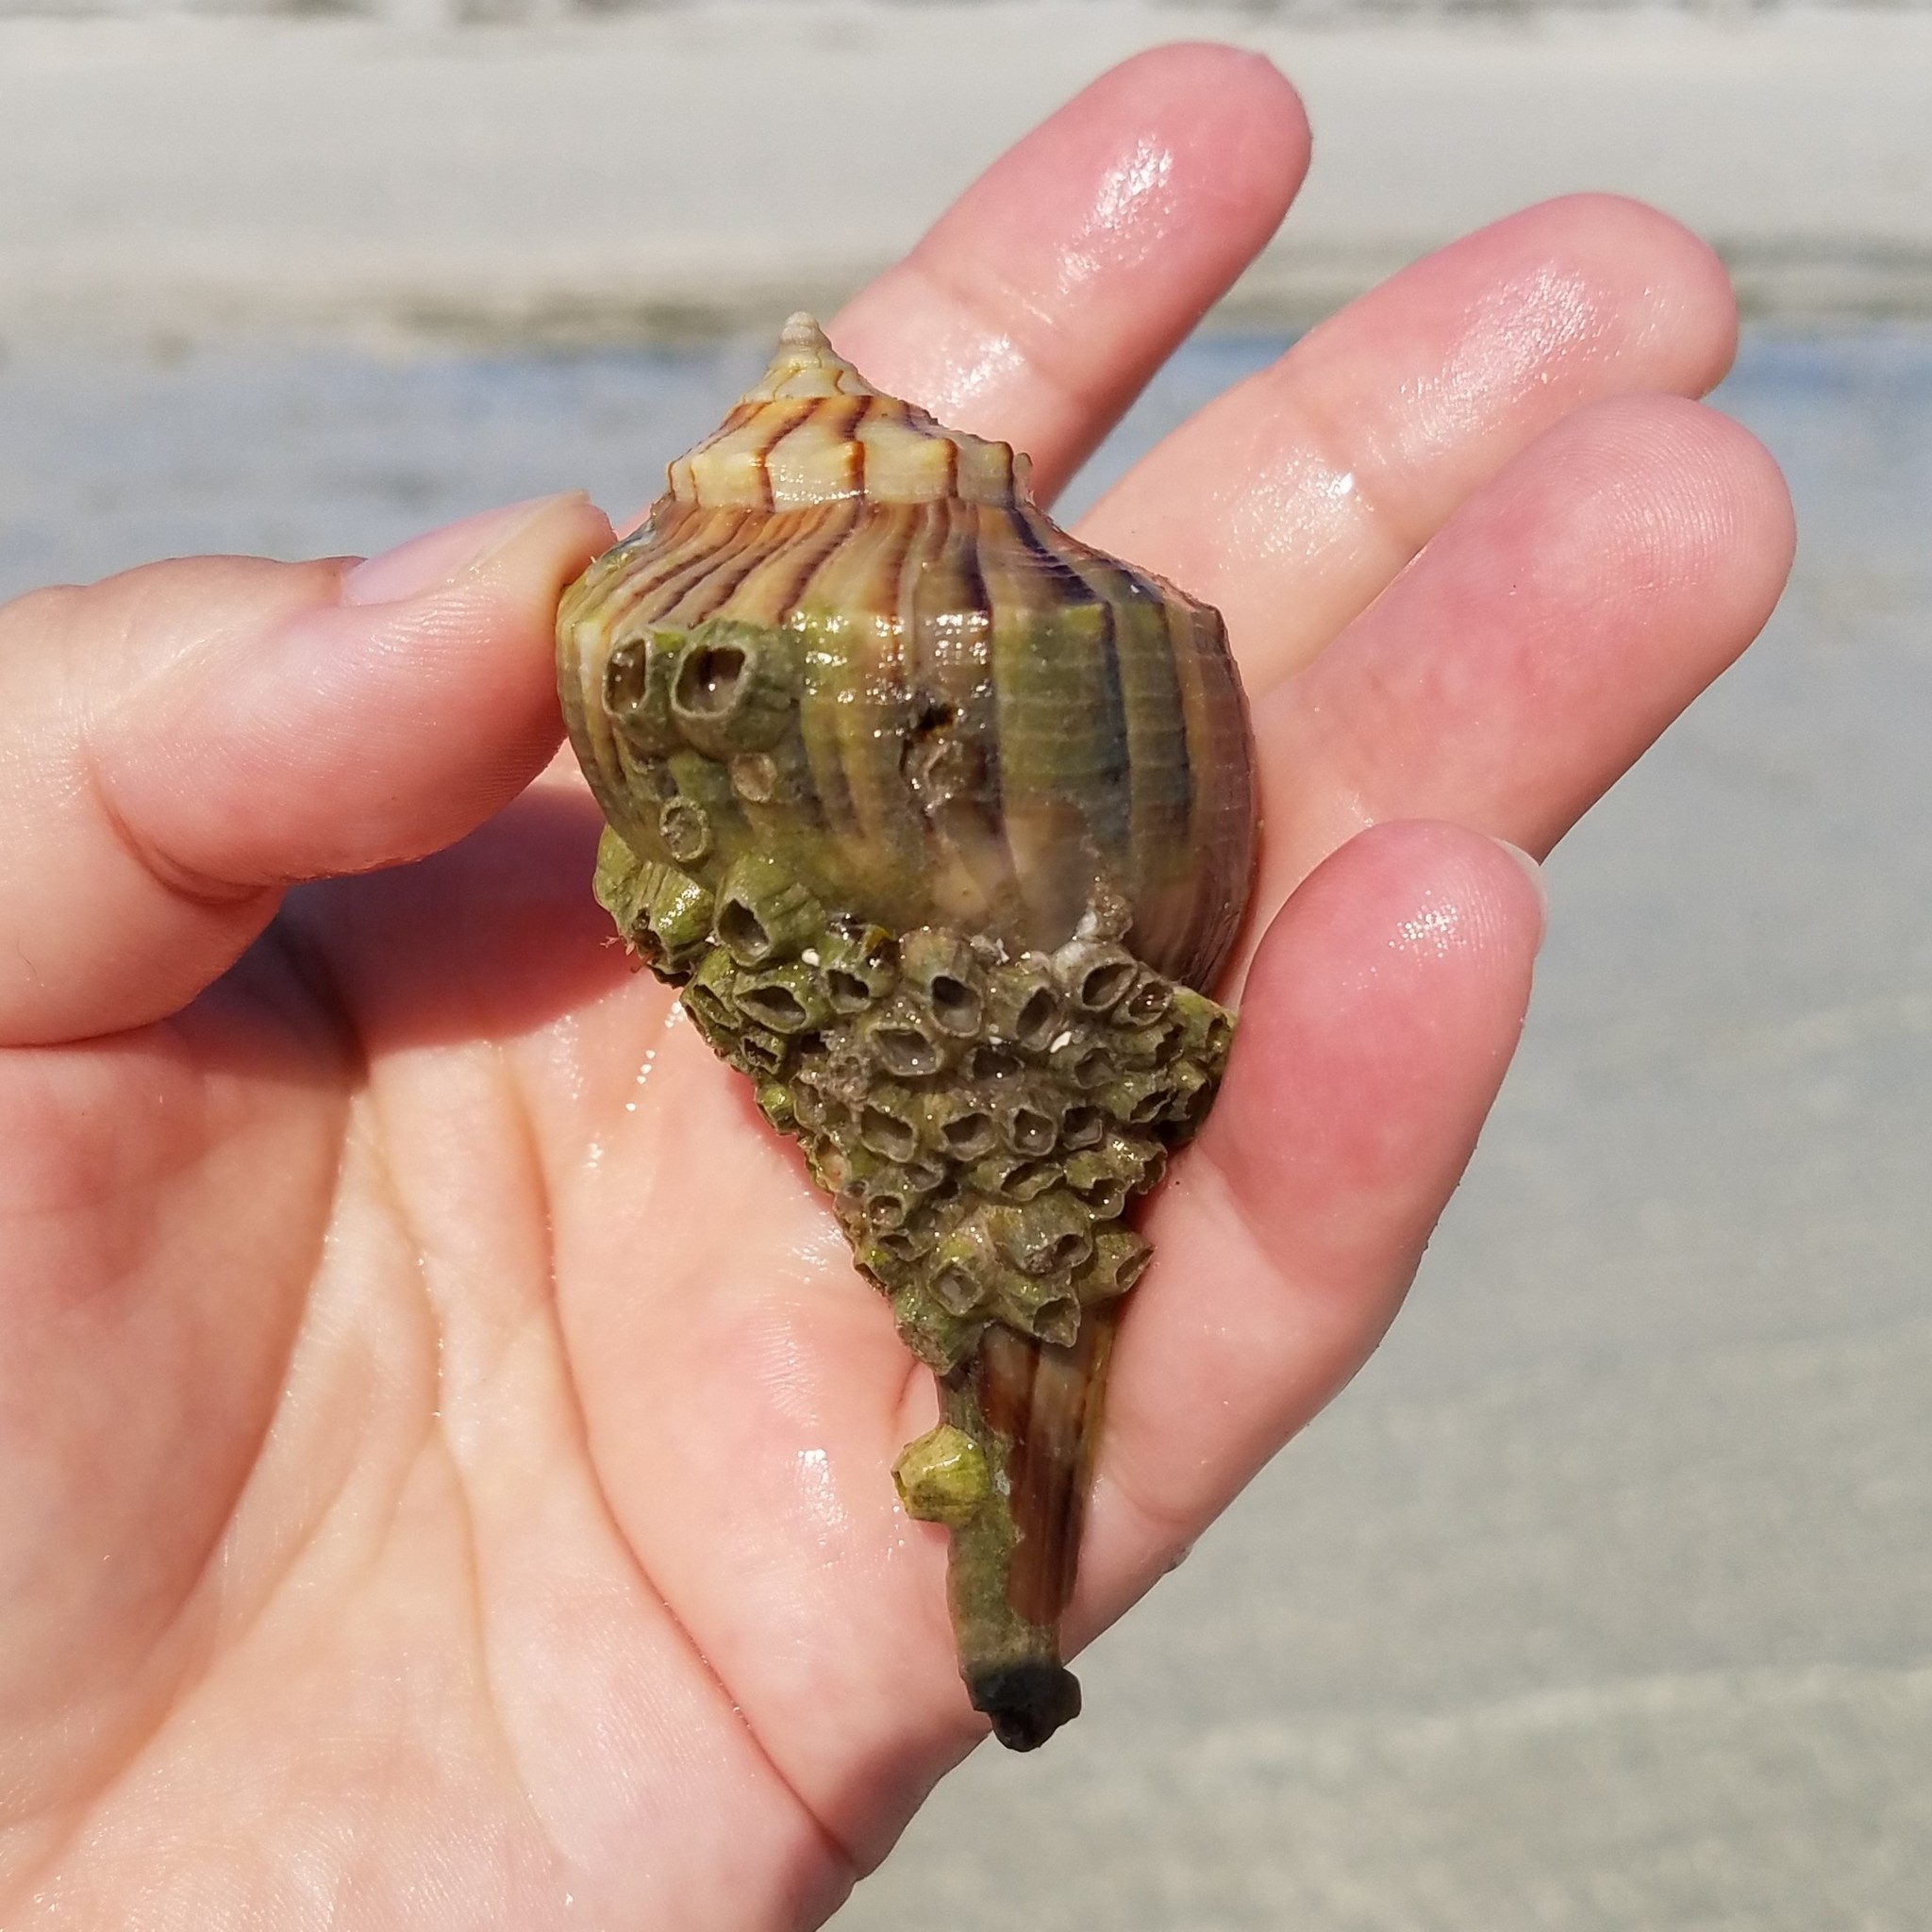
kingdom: Animalia
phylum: Mollusca
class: Gastropoda
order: Neogastropoda
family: Busyconidae
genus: Sinistrofulgur
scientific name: Sinistrofulgur sinistrum
